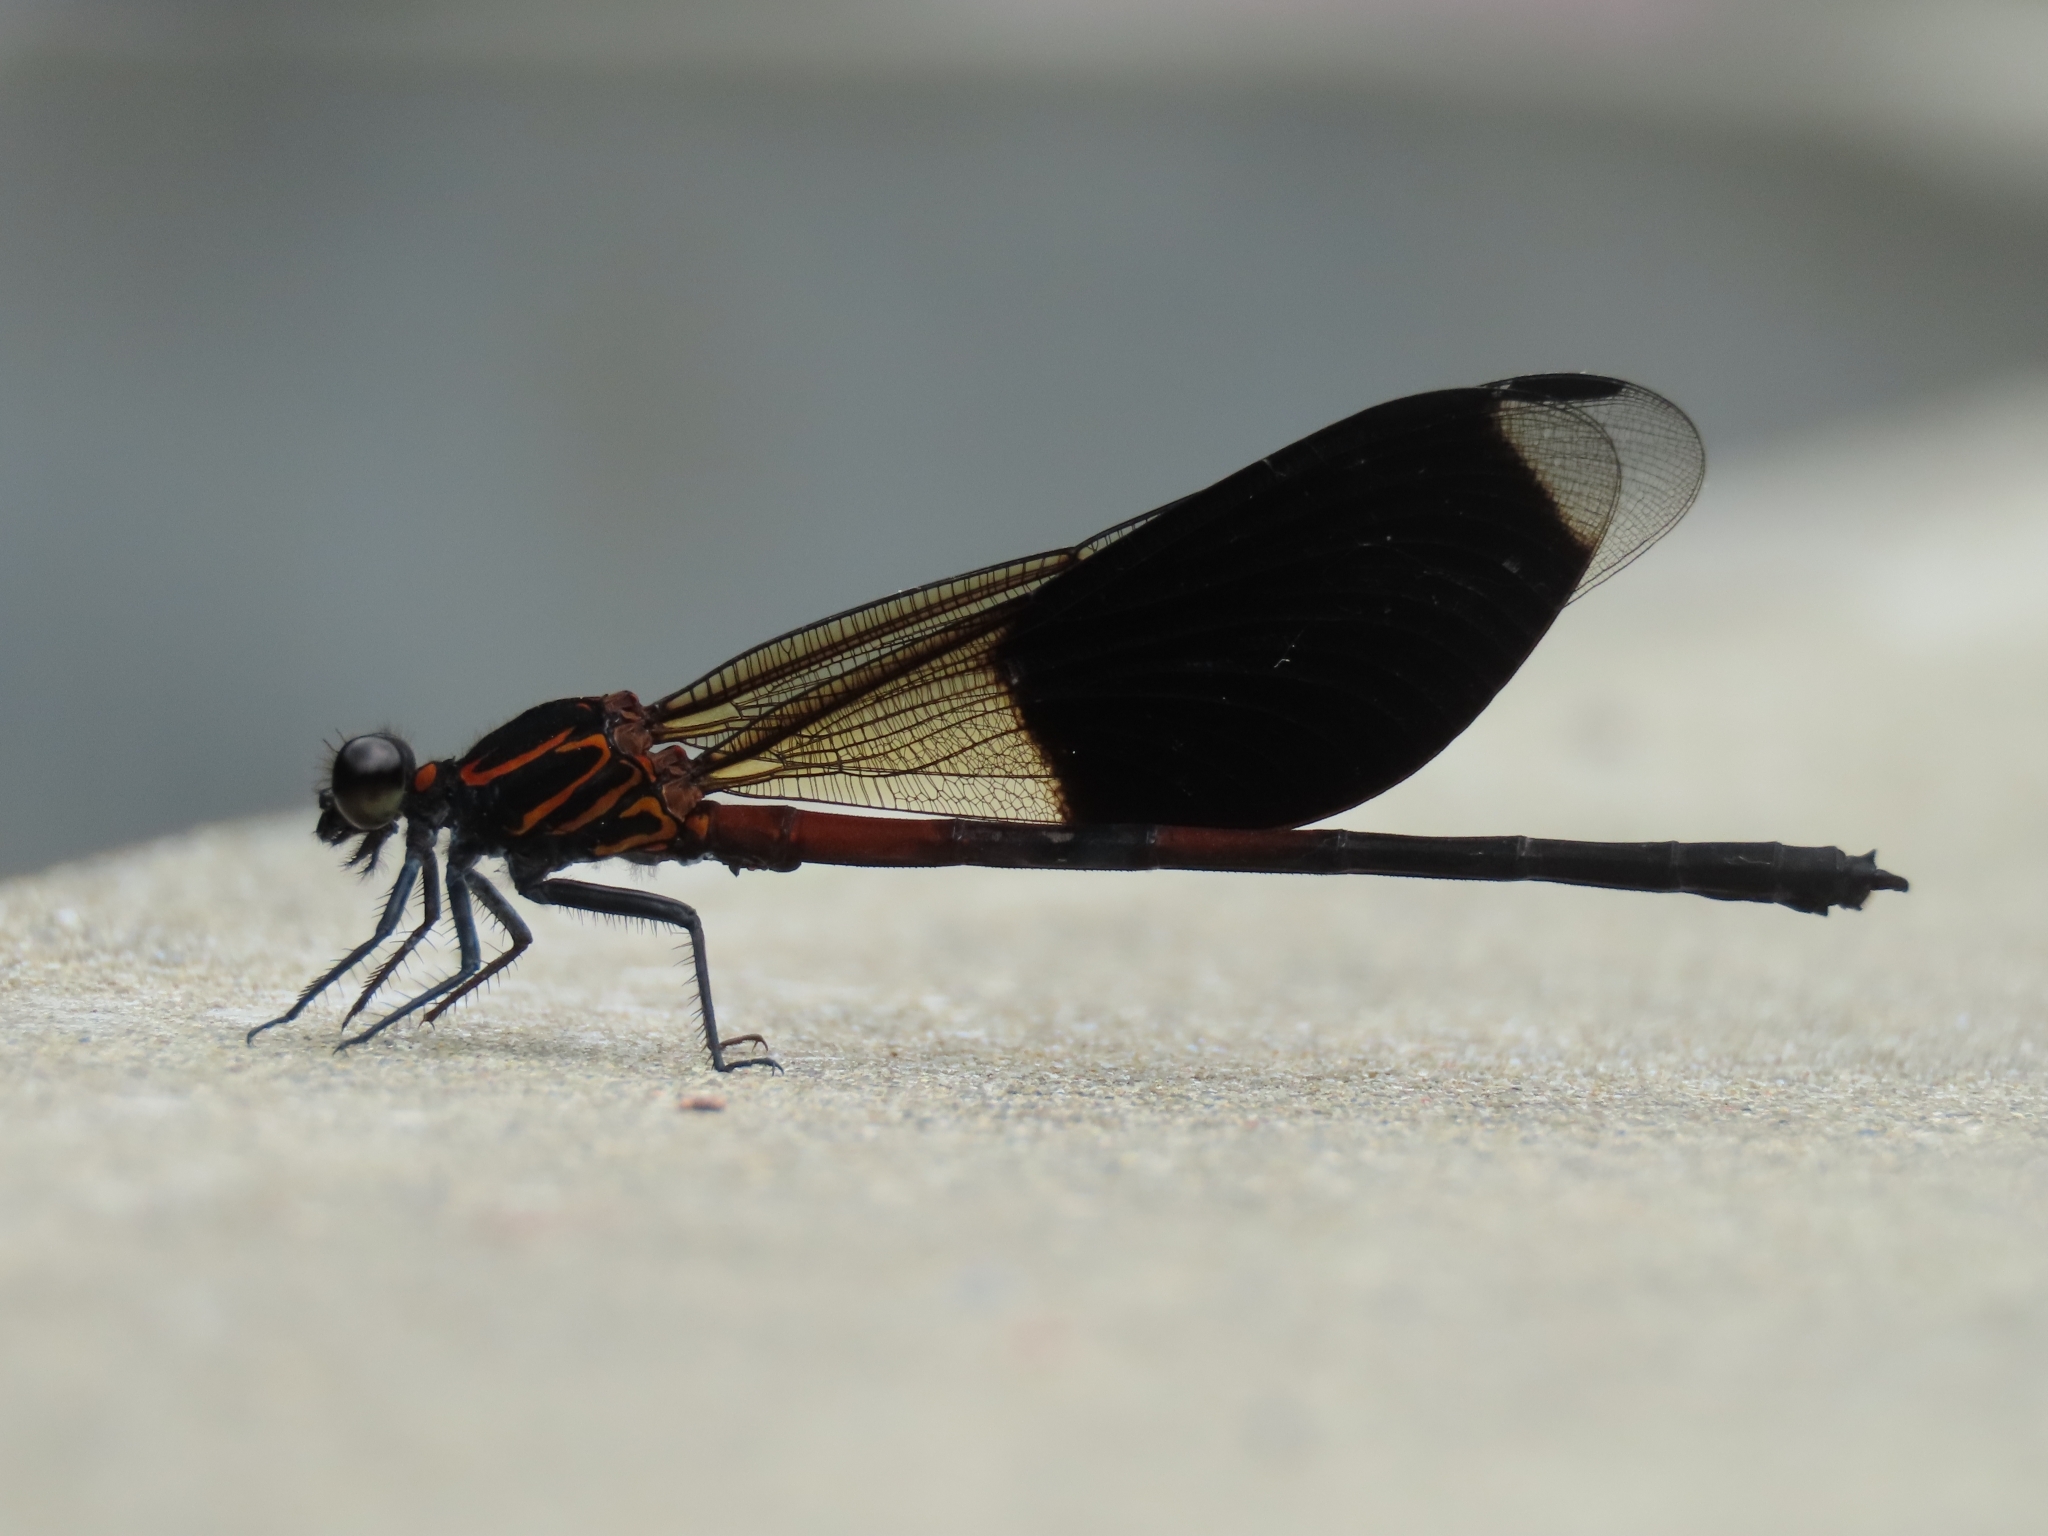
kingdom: Animalia
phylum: Arthropoda
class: Insecta
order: Odonata
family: Euphaeidae
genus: Euphaea
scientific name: Euphaea formosa
